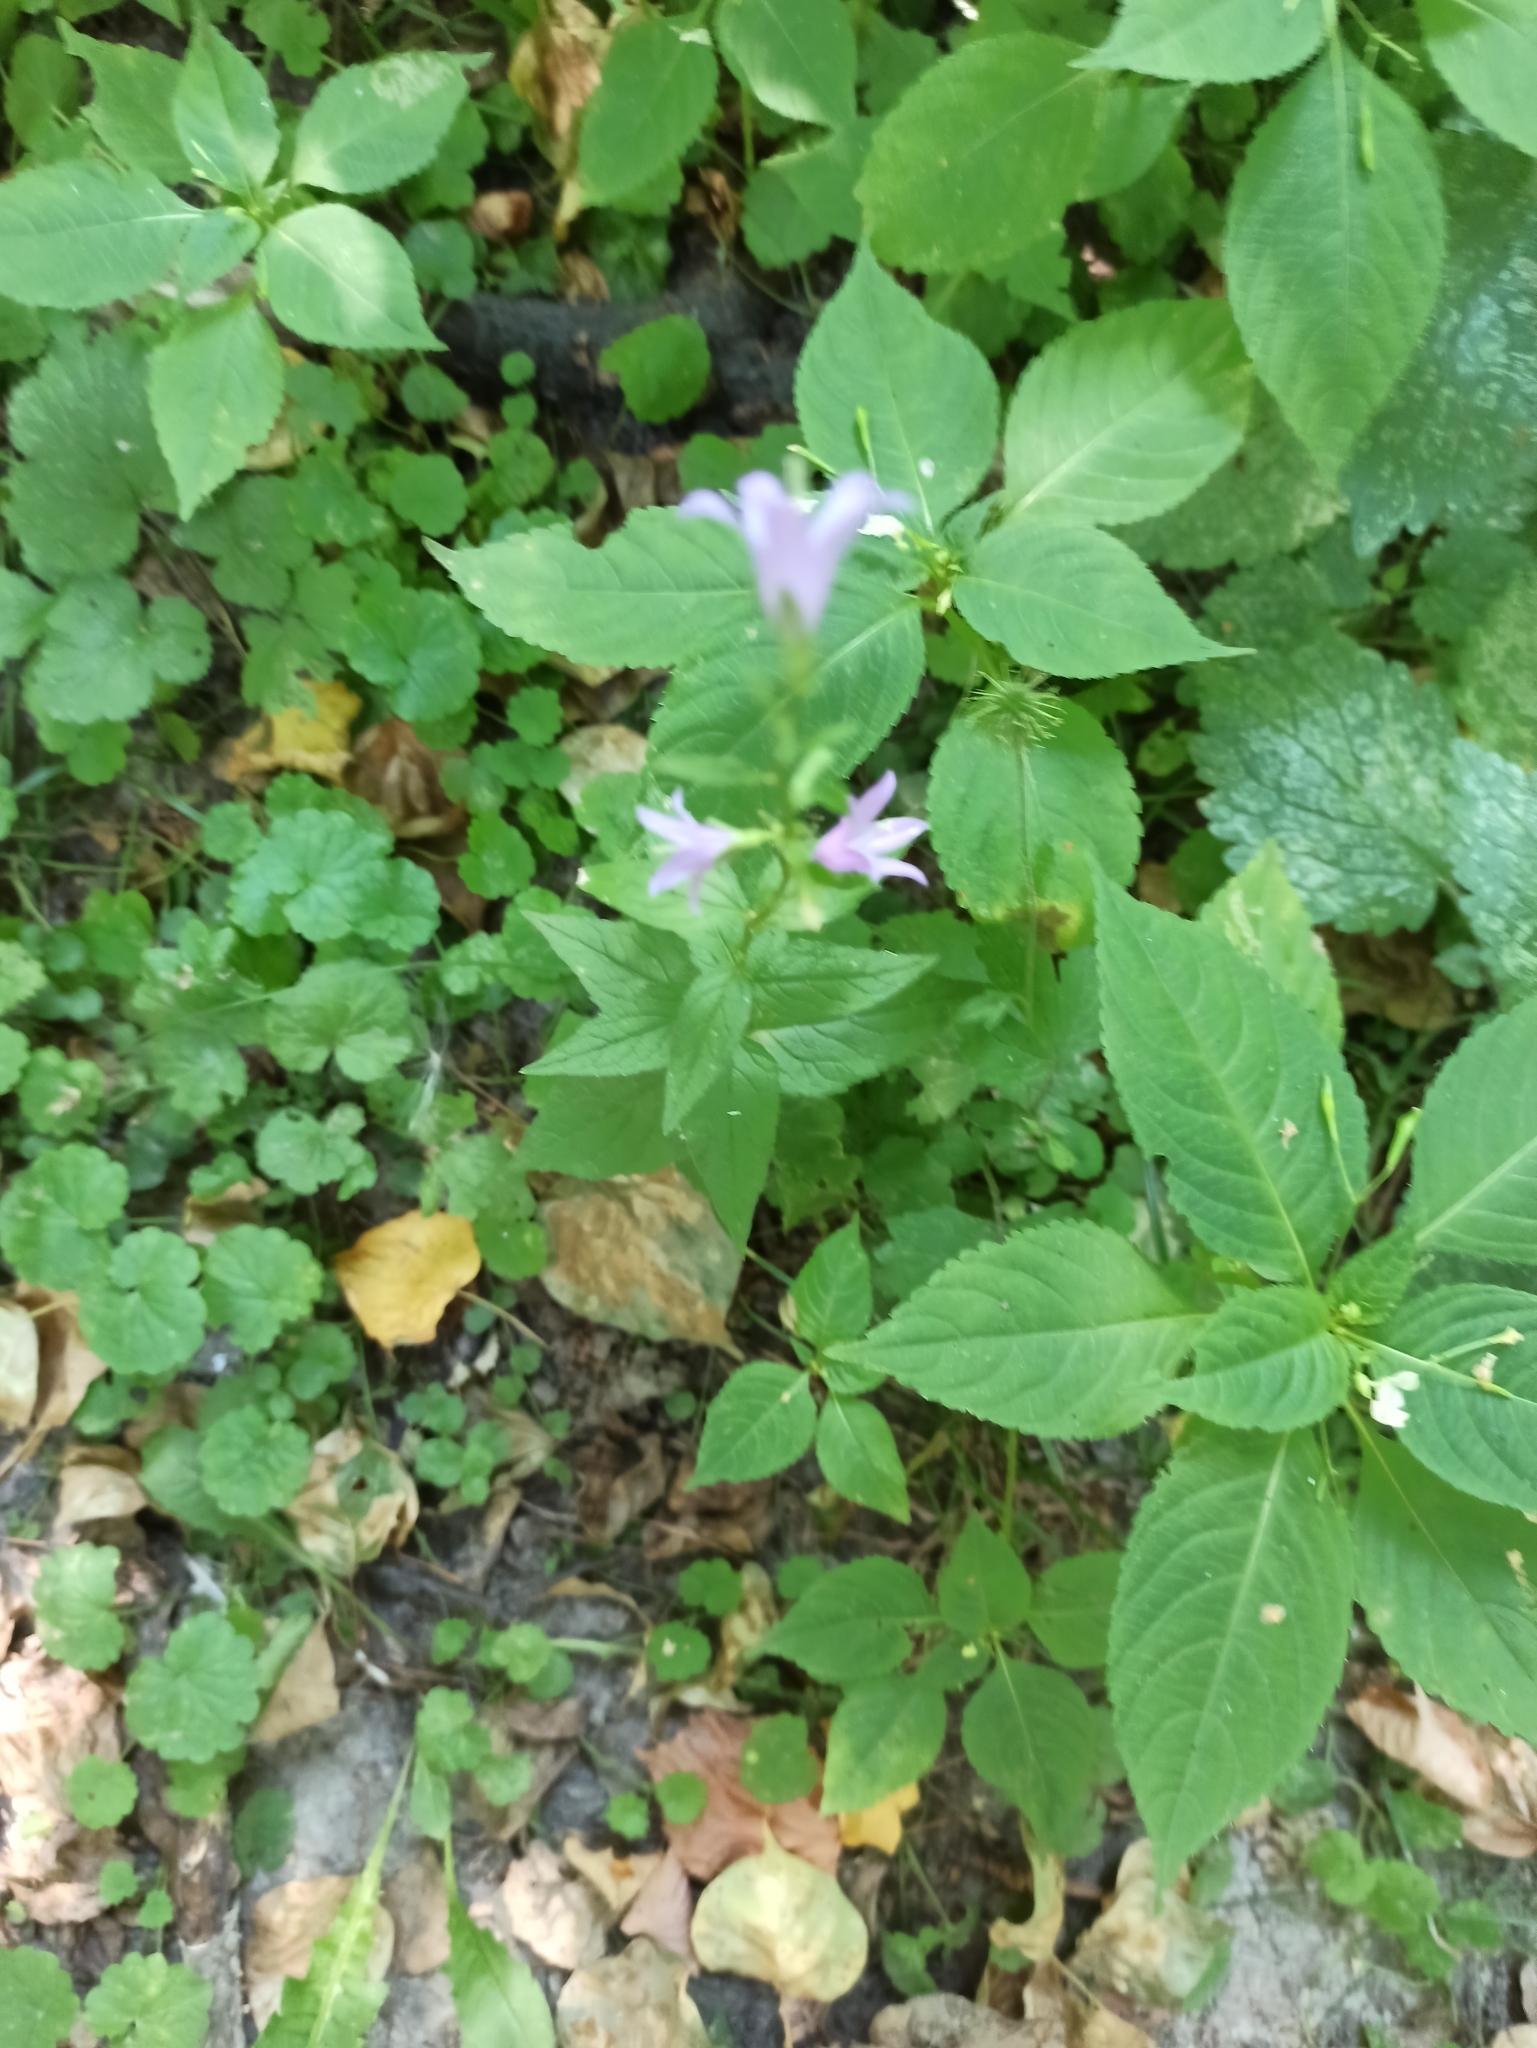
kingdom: Plantae
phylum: Tracheophyta
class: Magnoliopsida
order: Asterales
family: Campanulaceae
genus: Campanula
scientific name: Campanula latifolia
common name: Giant bellflower
